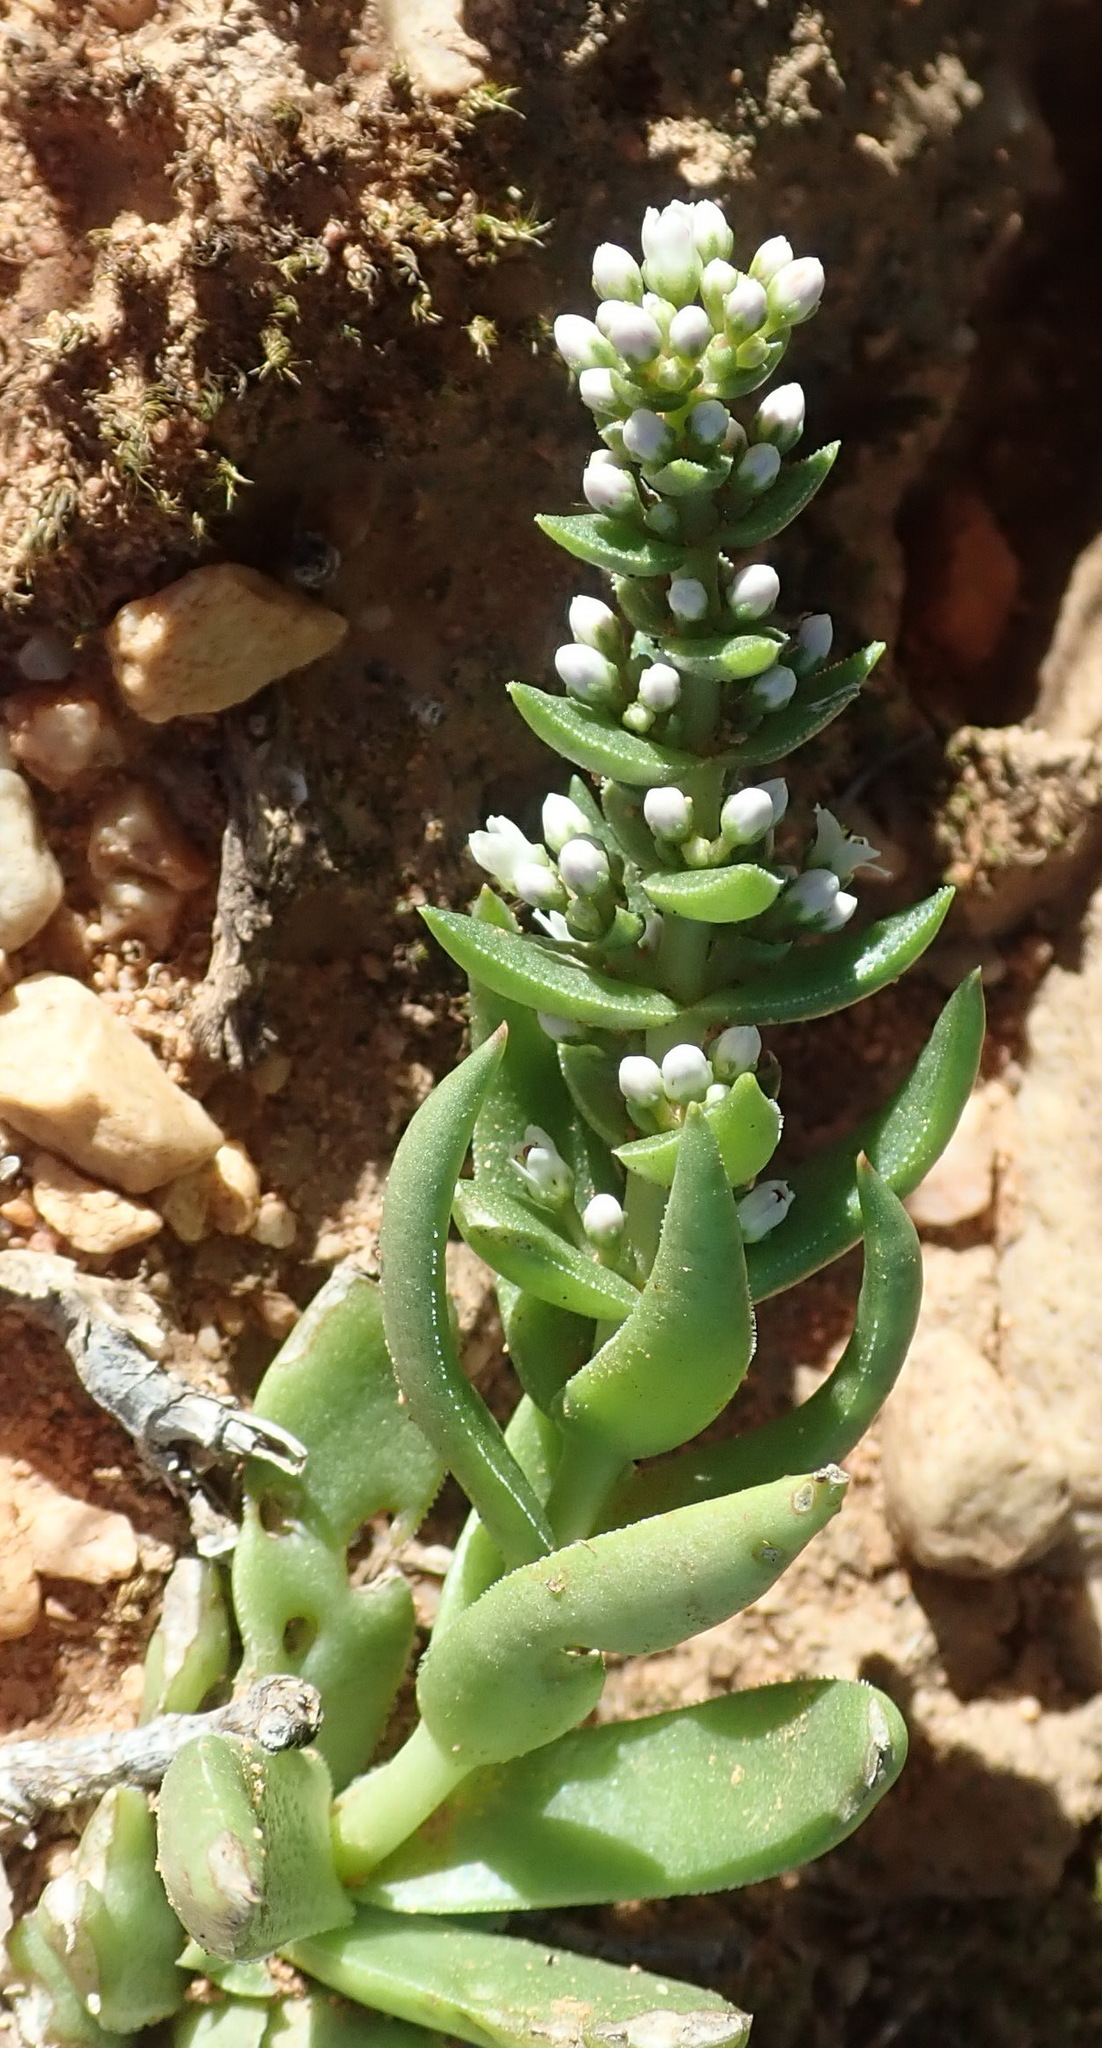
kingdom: Plantae
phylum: Tracheophyta
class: Magnoliopsida
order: Saxifragales
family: Crassulaceae
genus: Crassula
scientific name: Crassula capitella
